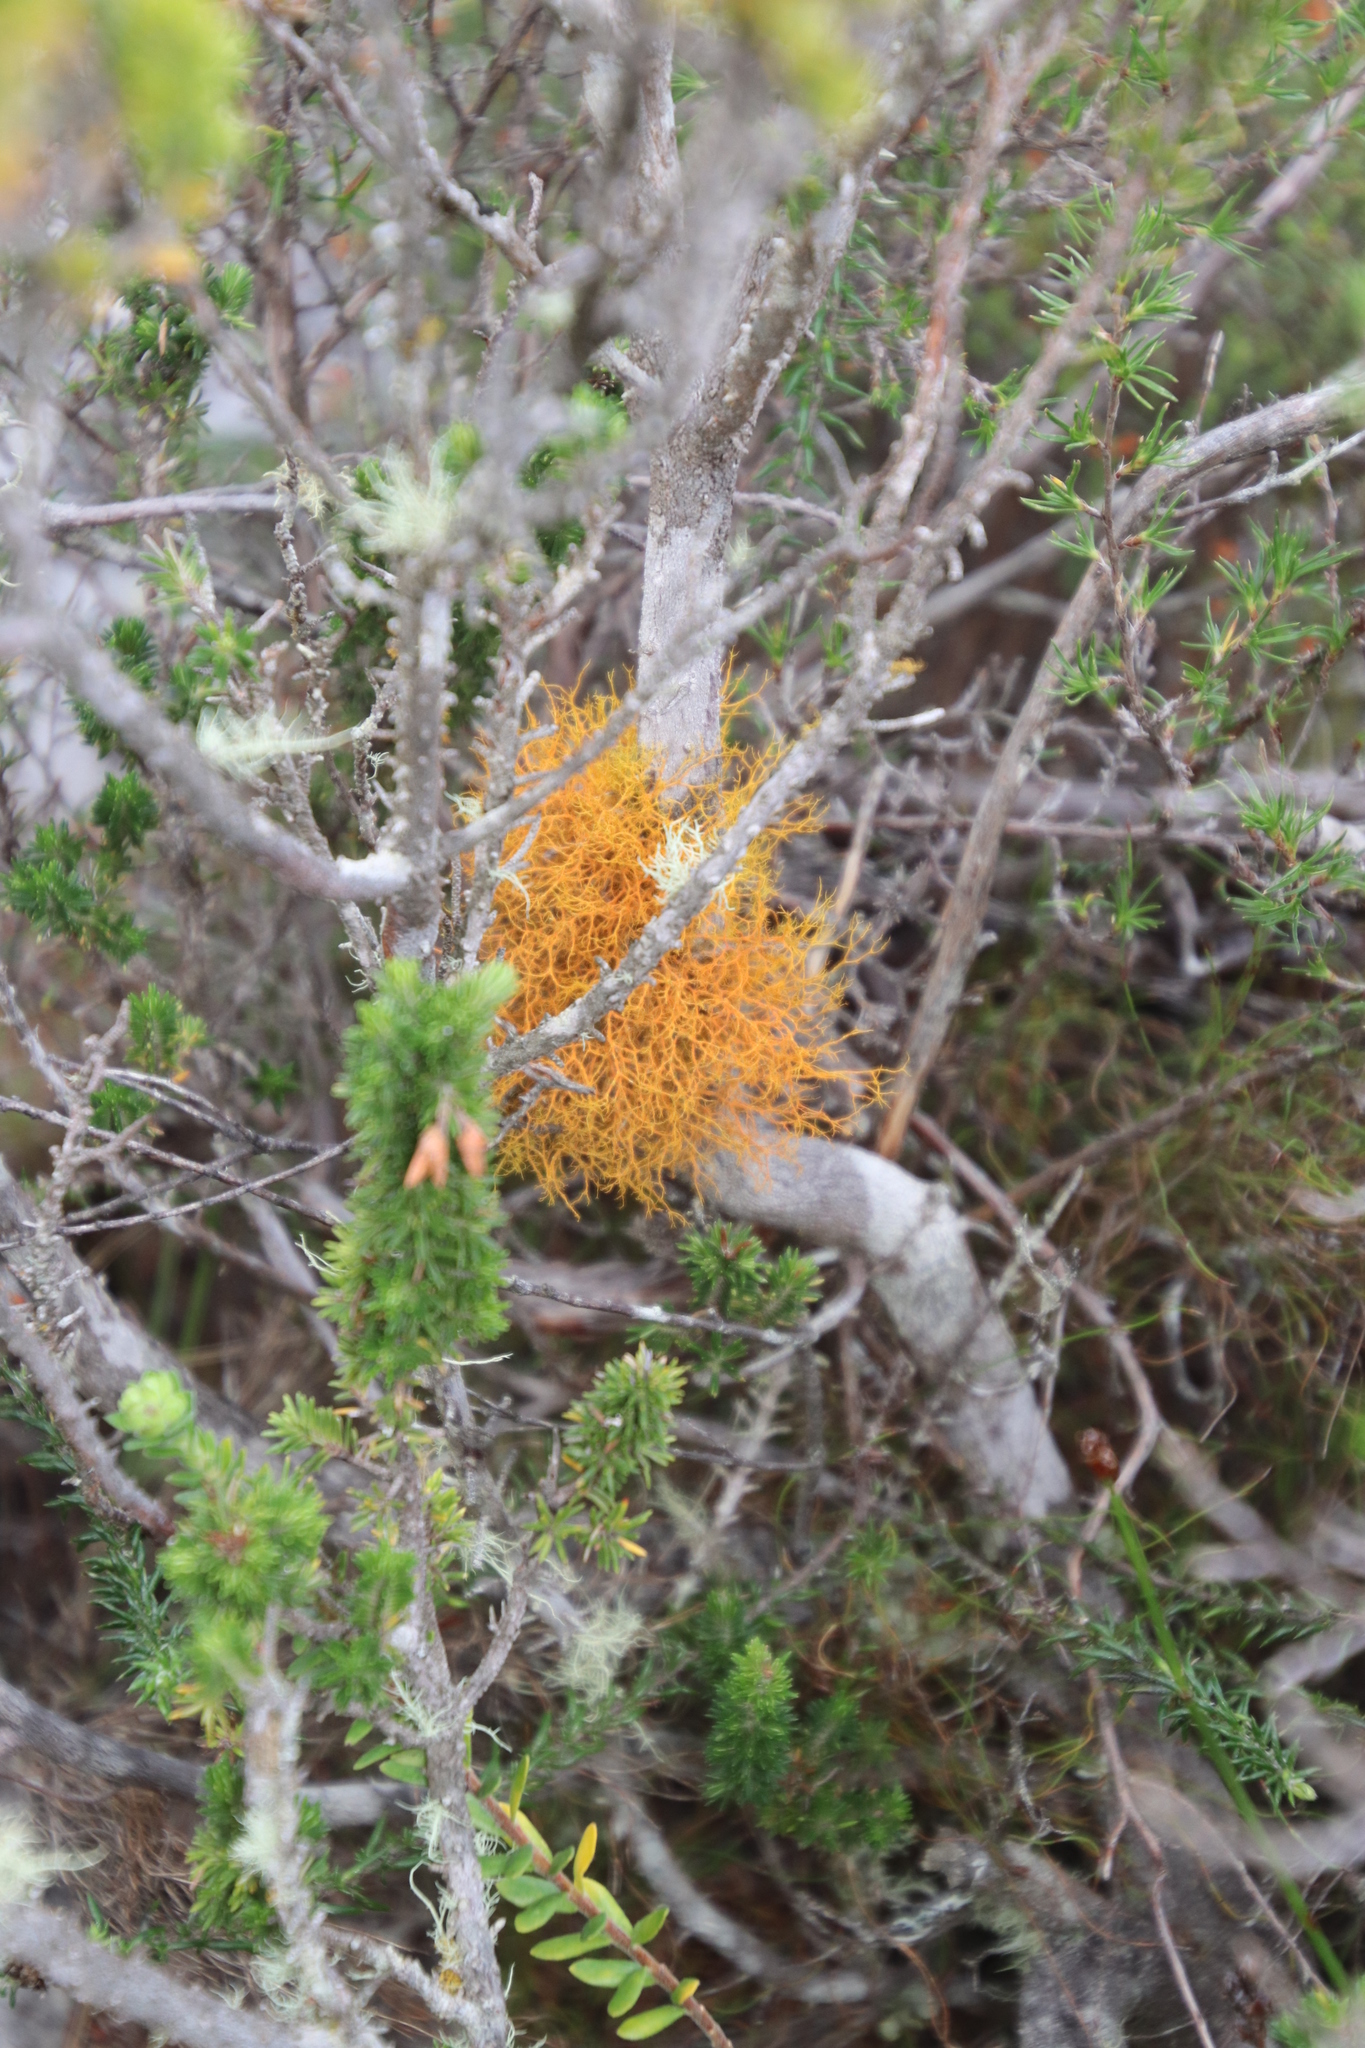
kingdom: Fungi
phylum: Ascomycota
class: Lecanoromycetes
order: Teloschistales
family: Teloschistaceae
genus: Teloschistes
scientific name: Teloschistes flavicans
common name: Golden hair-lichen
